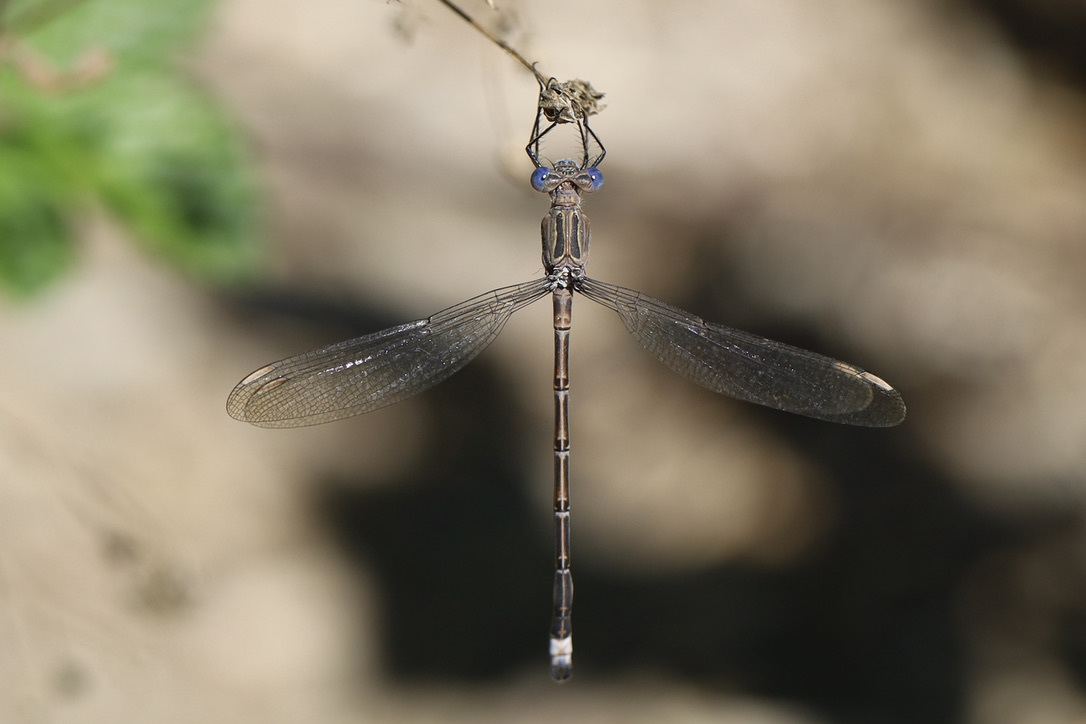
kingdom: Animalia
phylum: Arthropoda
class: Insecta
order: Odonata
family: Lestidae
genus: Archilestes
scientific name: Archilestes californicus
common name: California spreadwing
